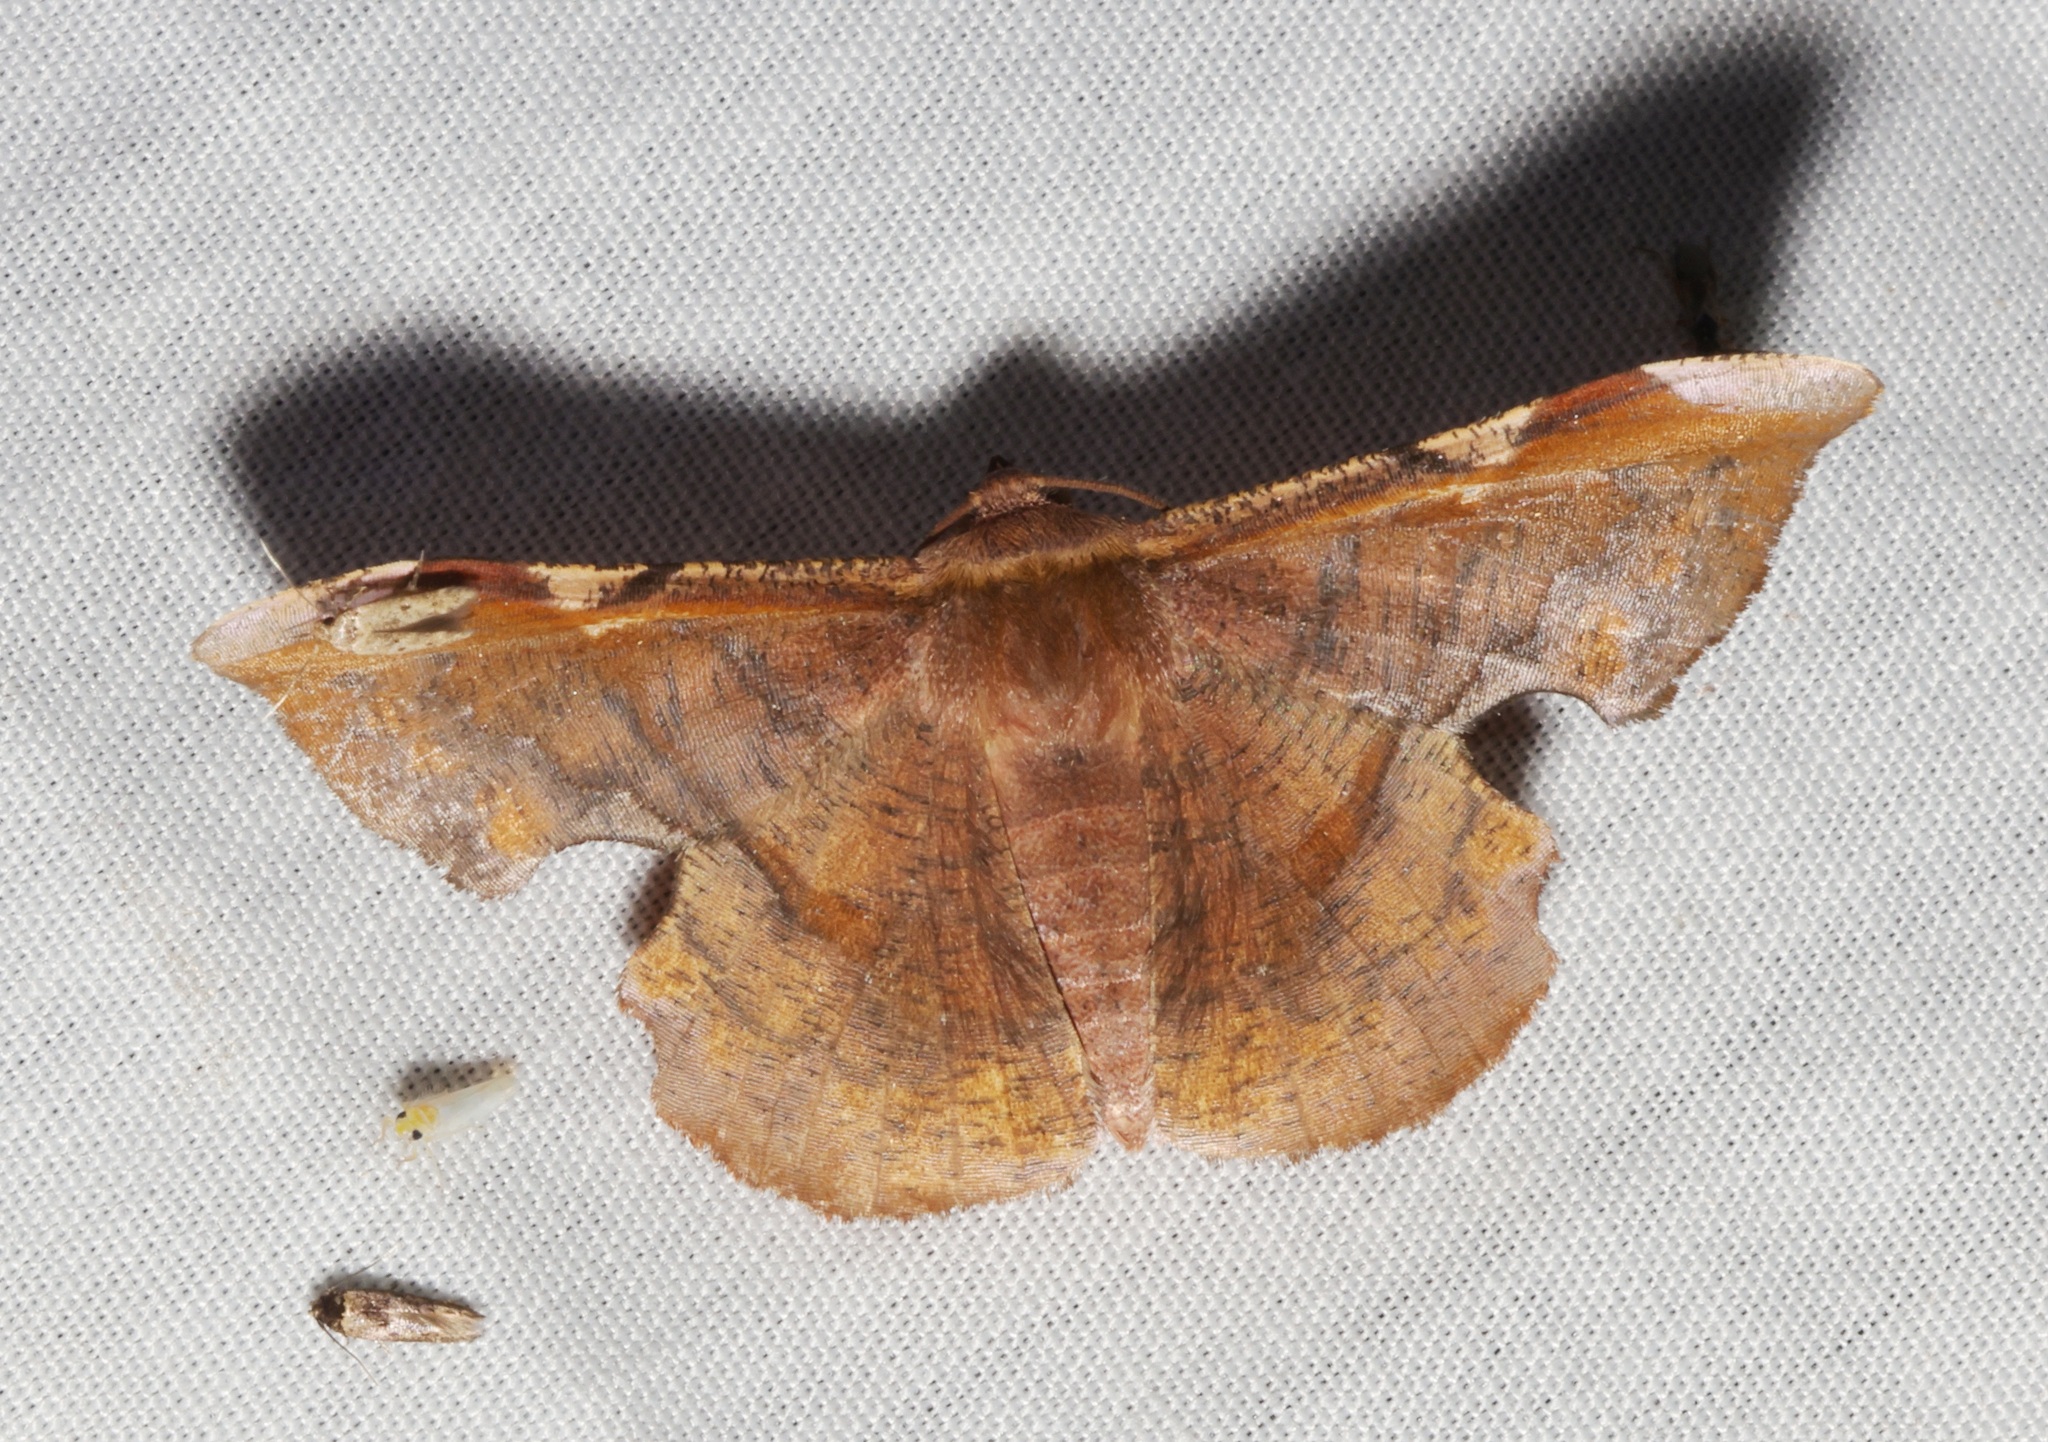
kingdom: Animalia
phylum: Arthropoda
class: Insecta
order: Lepidoptera
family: Geometridae
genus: Fascellina
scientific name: Fascellina chromataria
